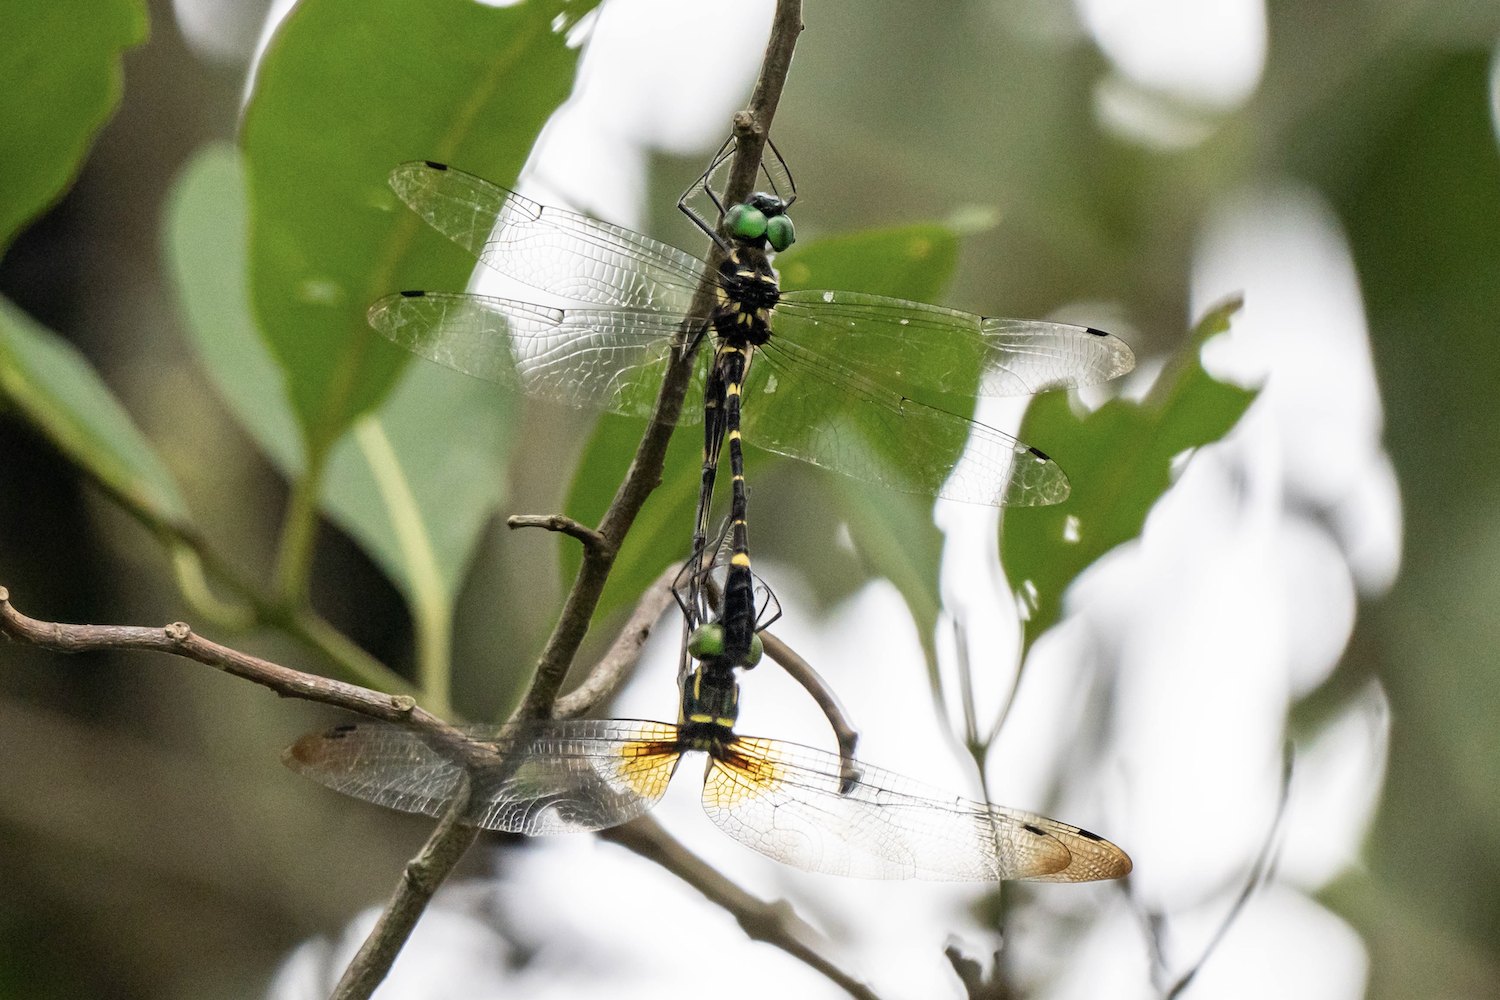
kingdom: Animalia
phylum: Arthropoda
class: Insecta
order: Odonata
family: Macromiidae
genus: Macromia
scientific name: Macromia katae
